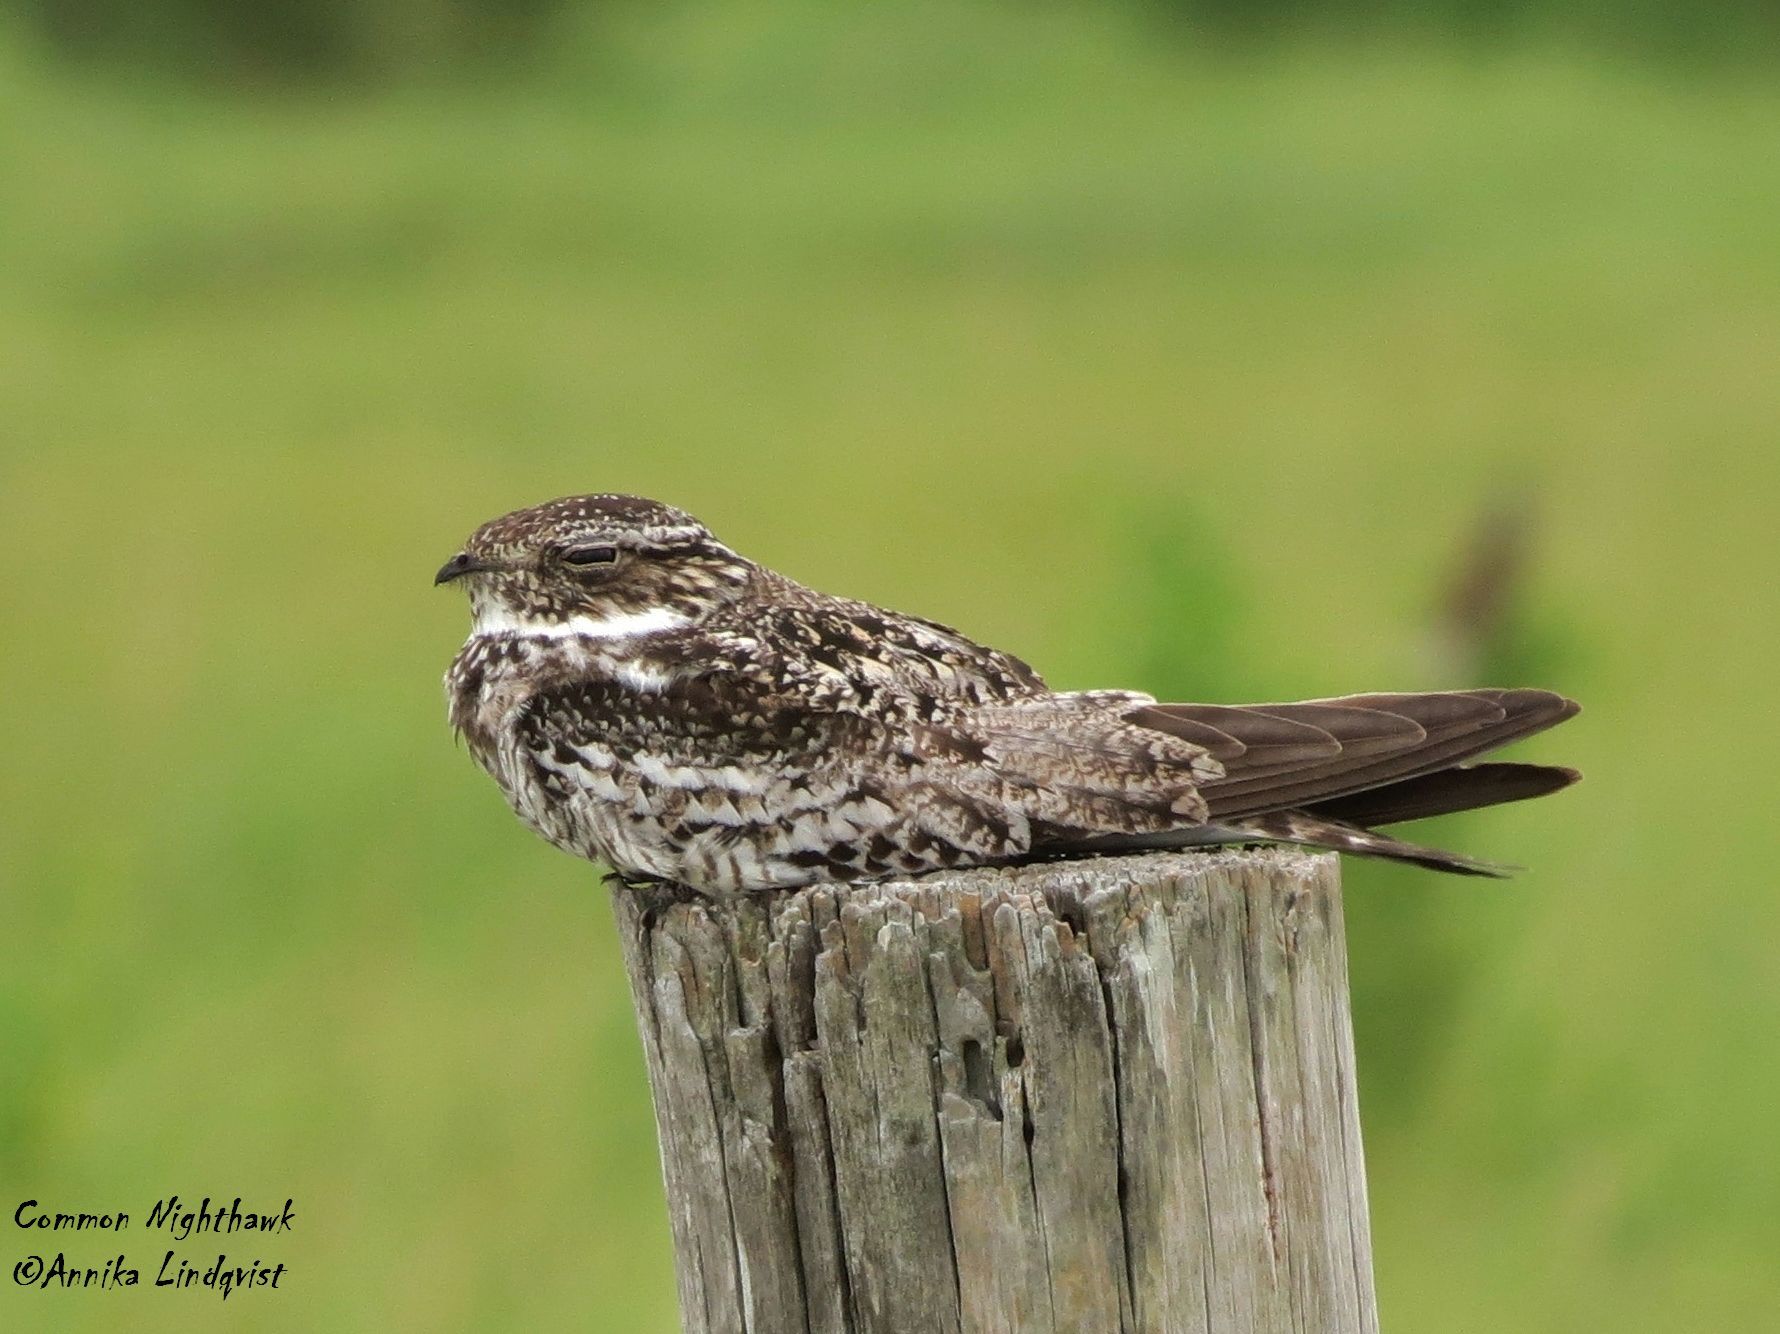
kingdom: Animalia
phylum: Chordata
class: Aves
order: Caprimulgiformes
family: Caprimulgidae
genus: Chordeiles
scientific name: Chordeiles minor
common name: Common nighthawk
